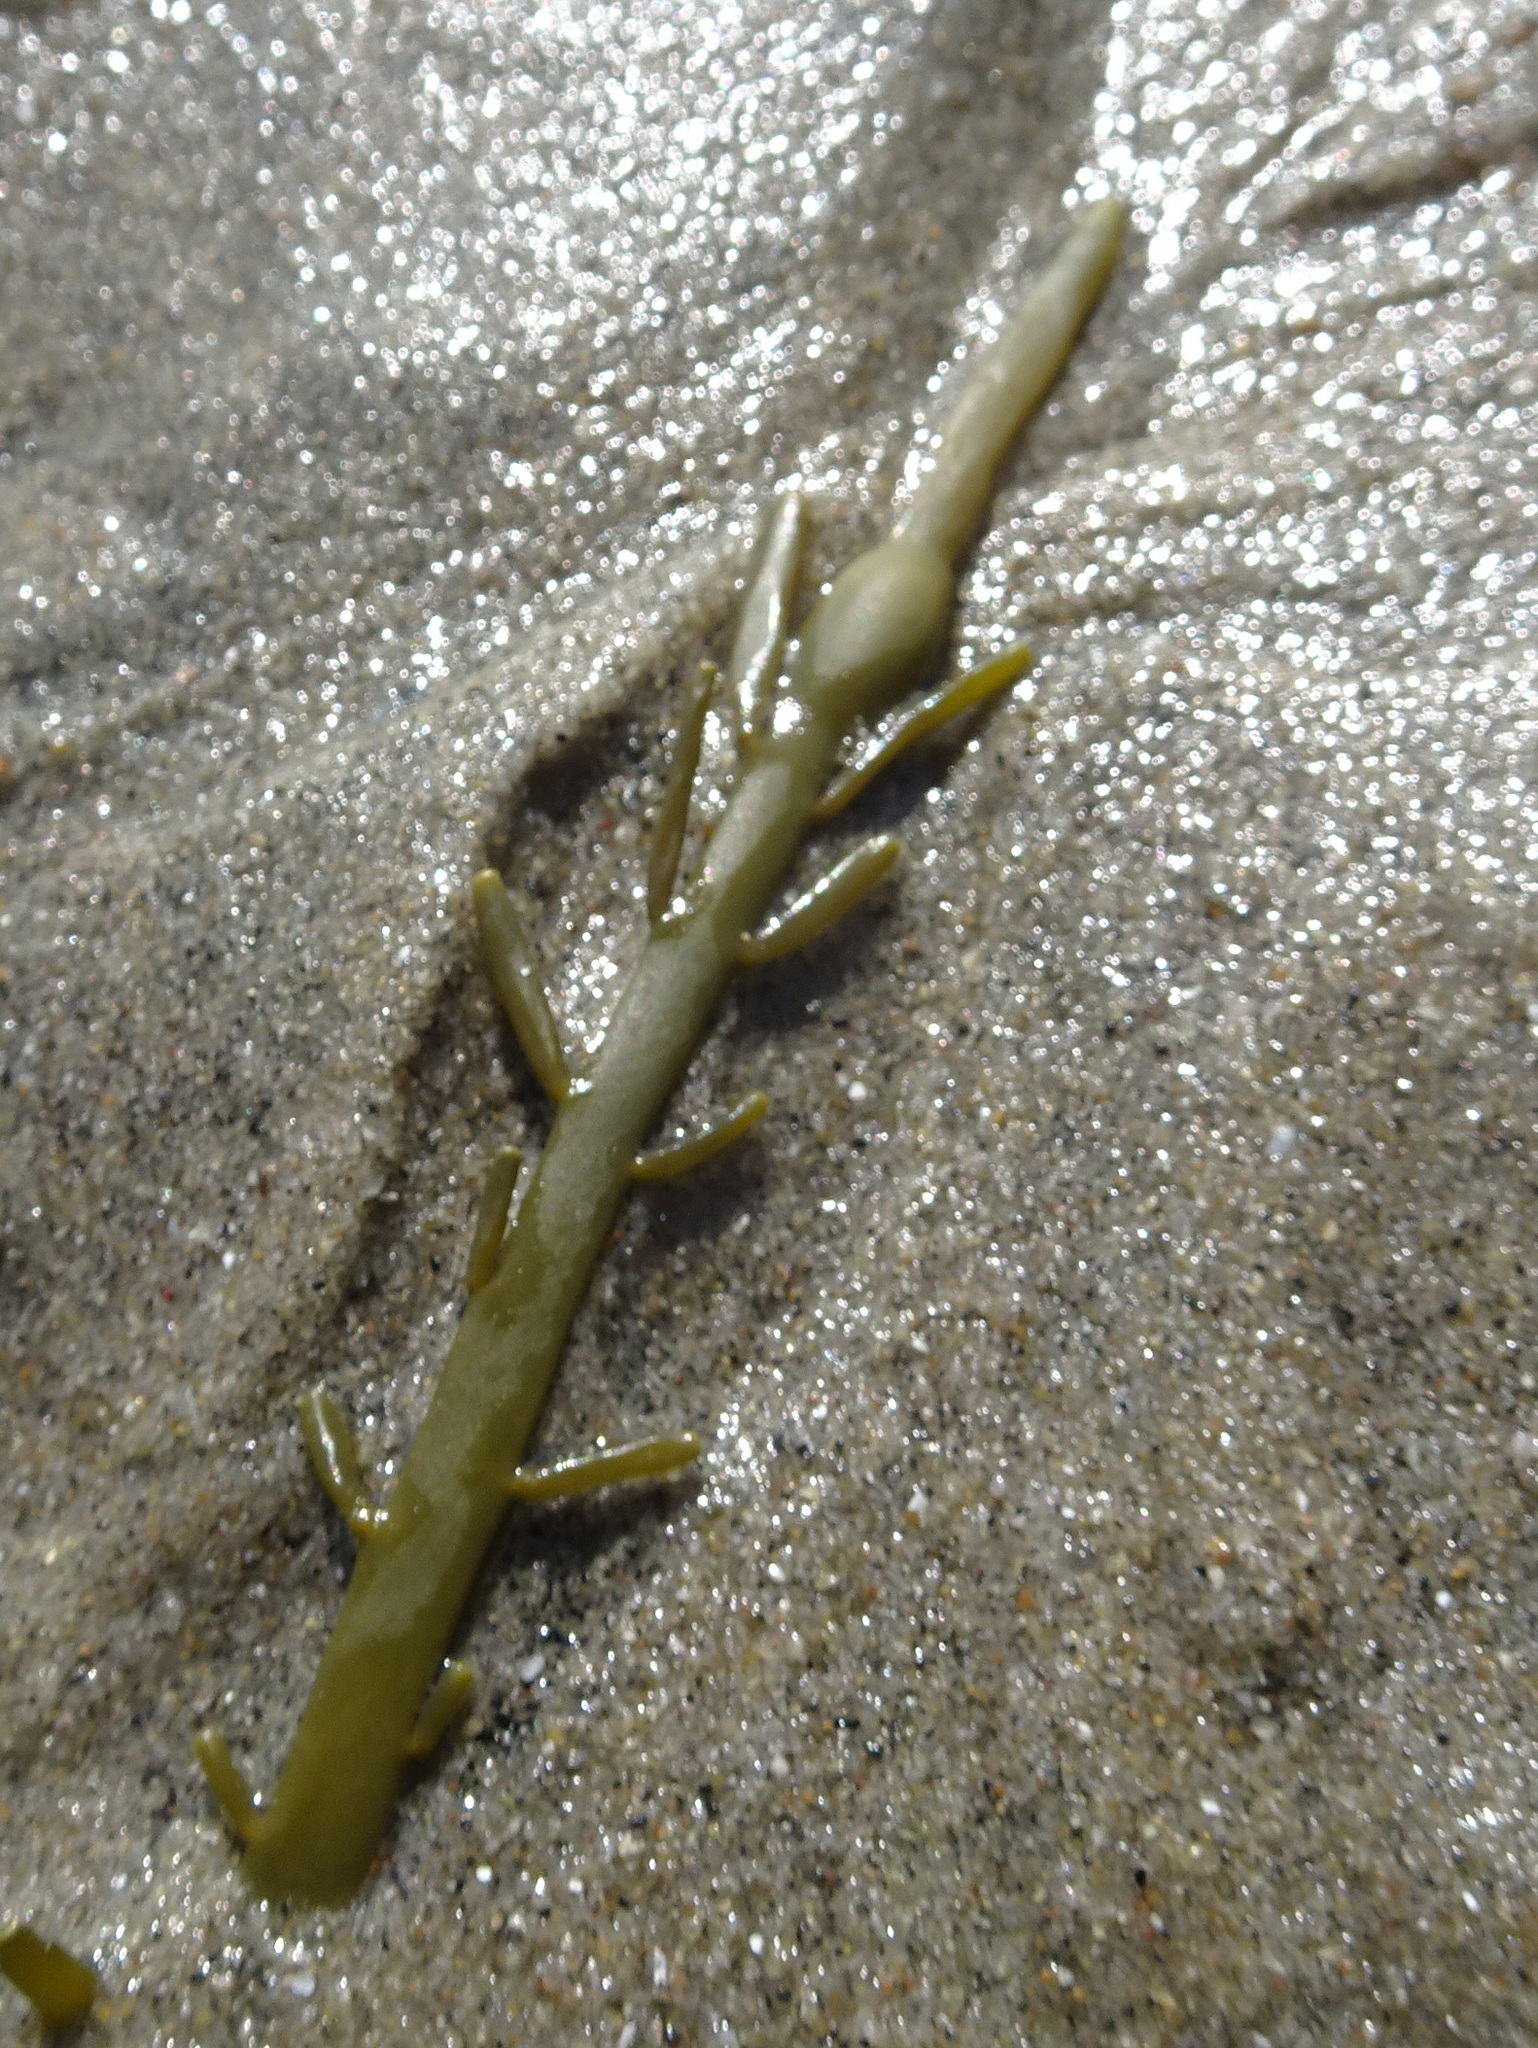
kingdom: Chromista
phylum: Ochrophyta
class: Phaeophyceae
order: Fucales
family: Fucaceae
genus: Ascophyllum
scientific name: Ascophyllum nodosum
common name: Knotted wrack
